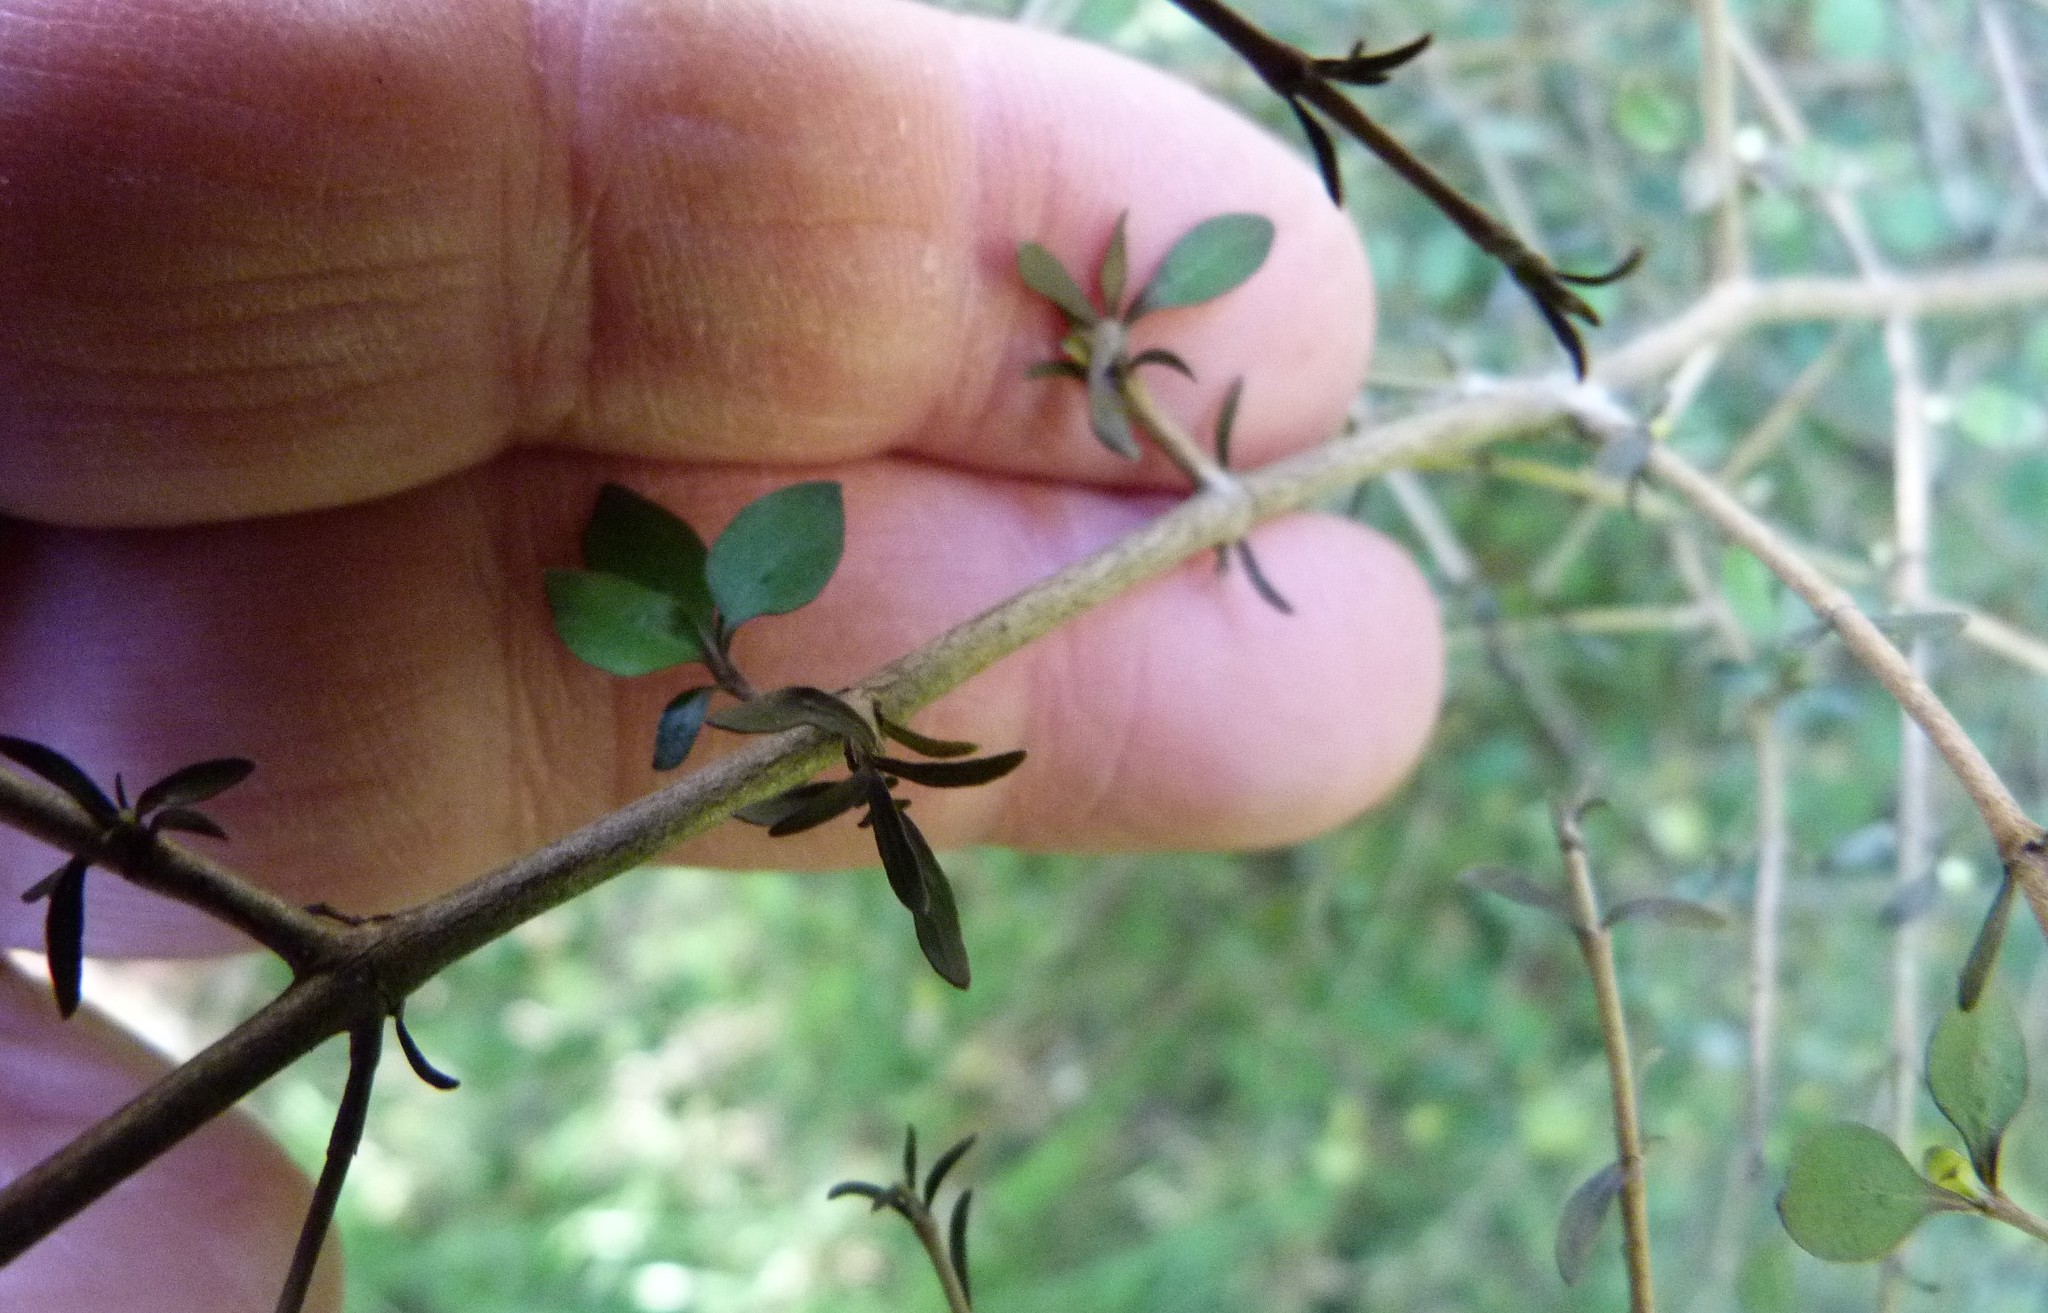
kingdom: Plantae
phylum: Tracheophyta
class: Magnoliopsida
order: Gentianales
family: Rubiaceae
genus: Coprosma
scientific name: Coprosma rhamnoides
